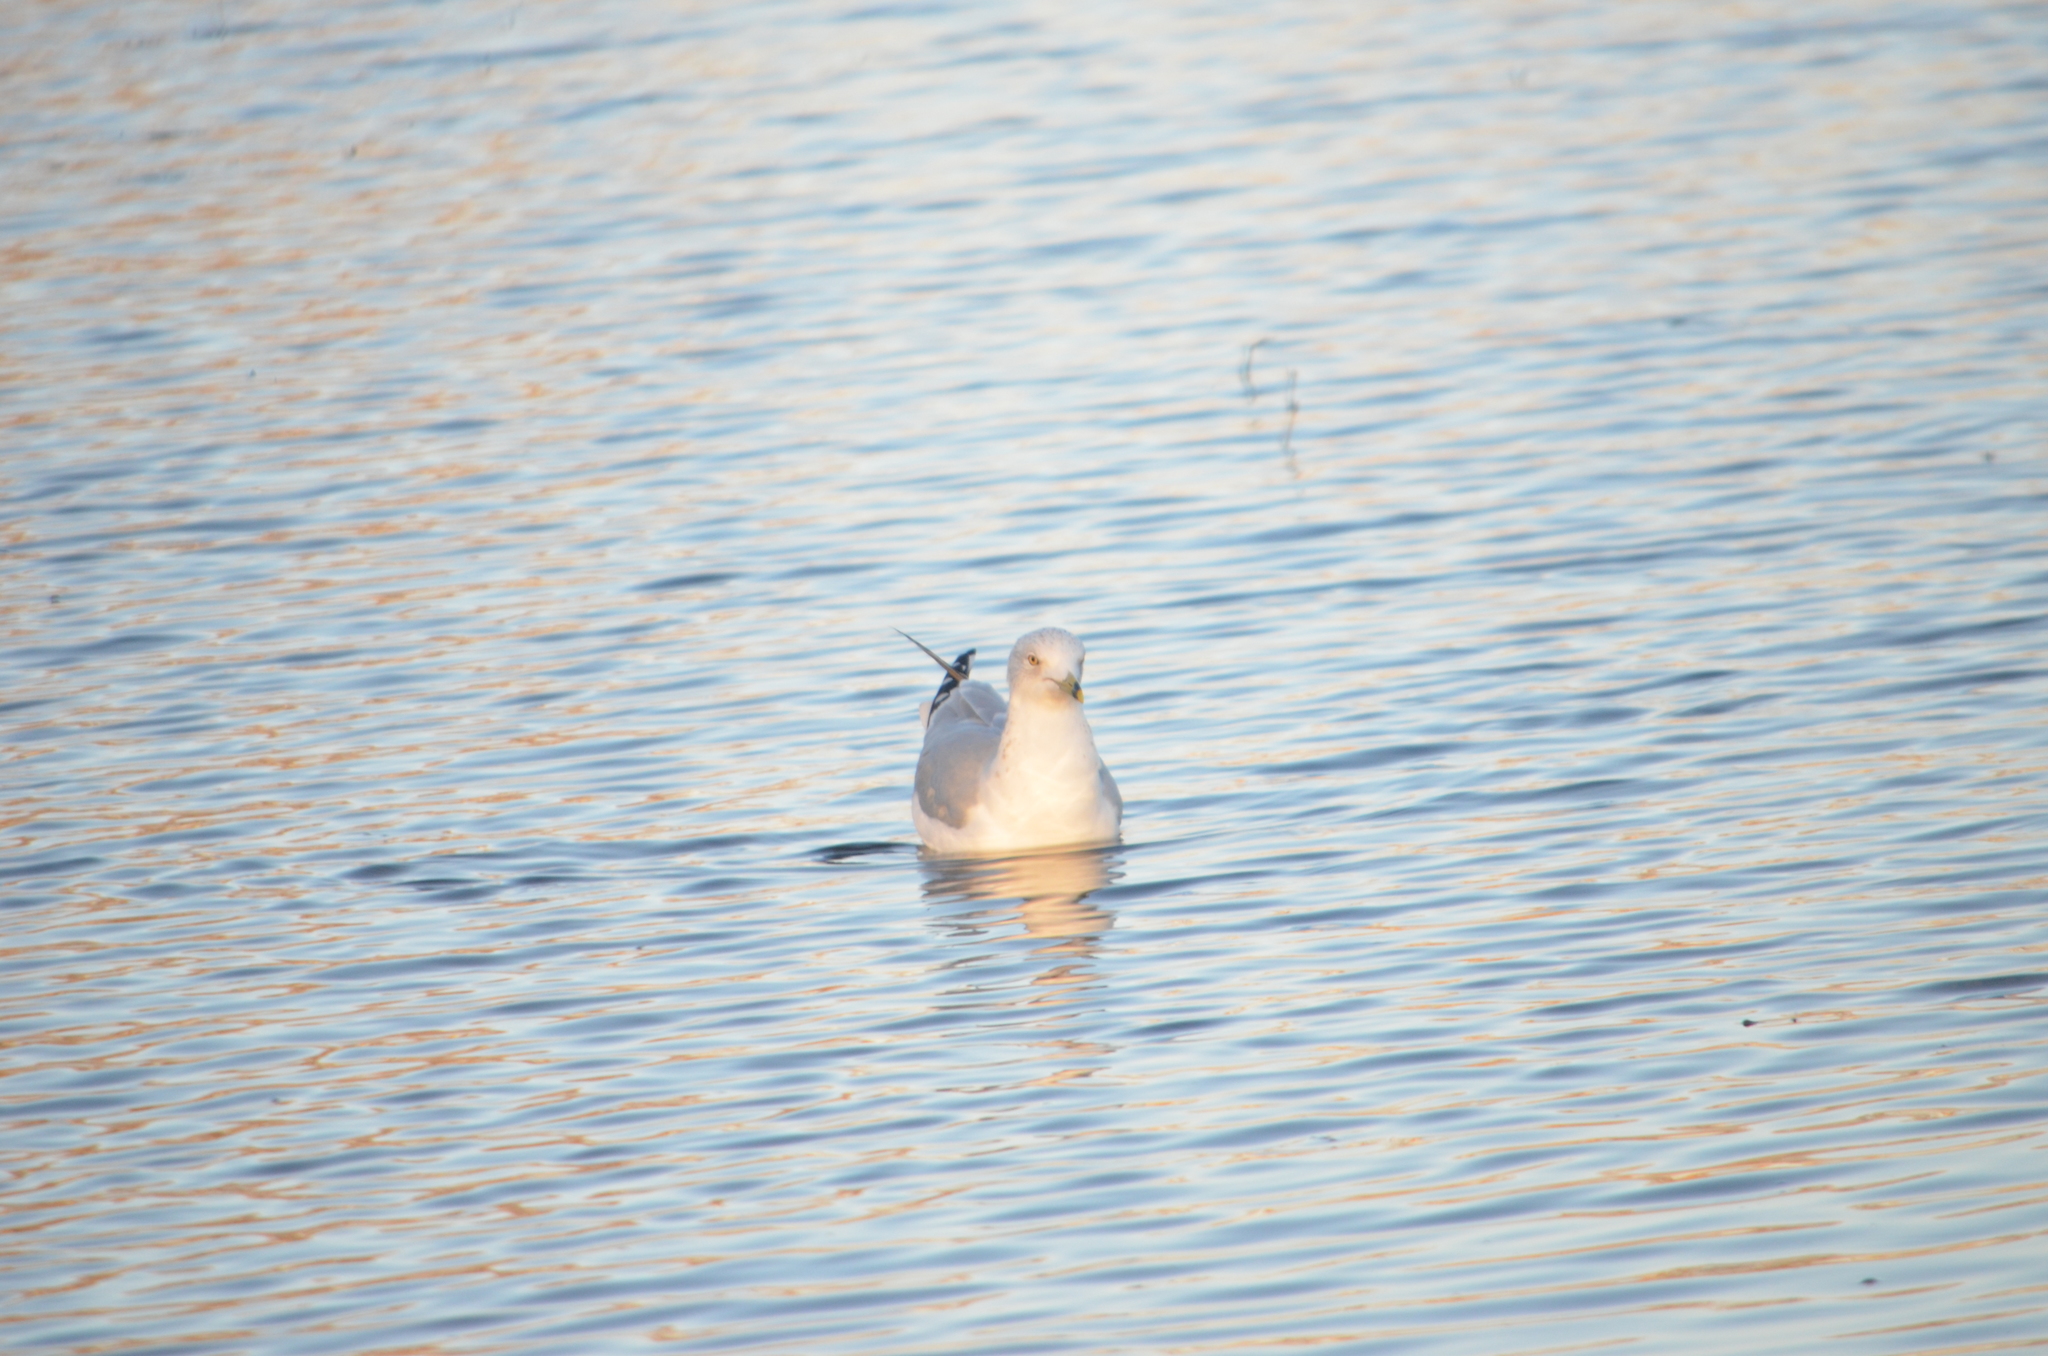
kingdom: Animalia
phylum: Chordata
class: Aves
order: Charadriiformes
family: Laridae
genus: Larus
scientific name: Larus delawarensis
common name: Ring-billed gull
